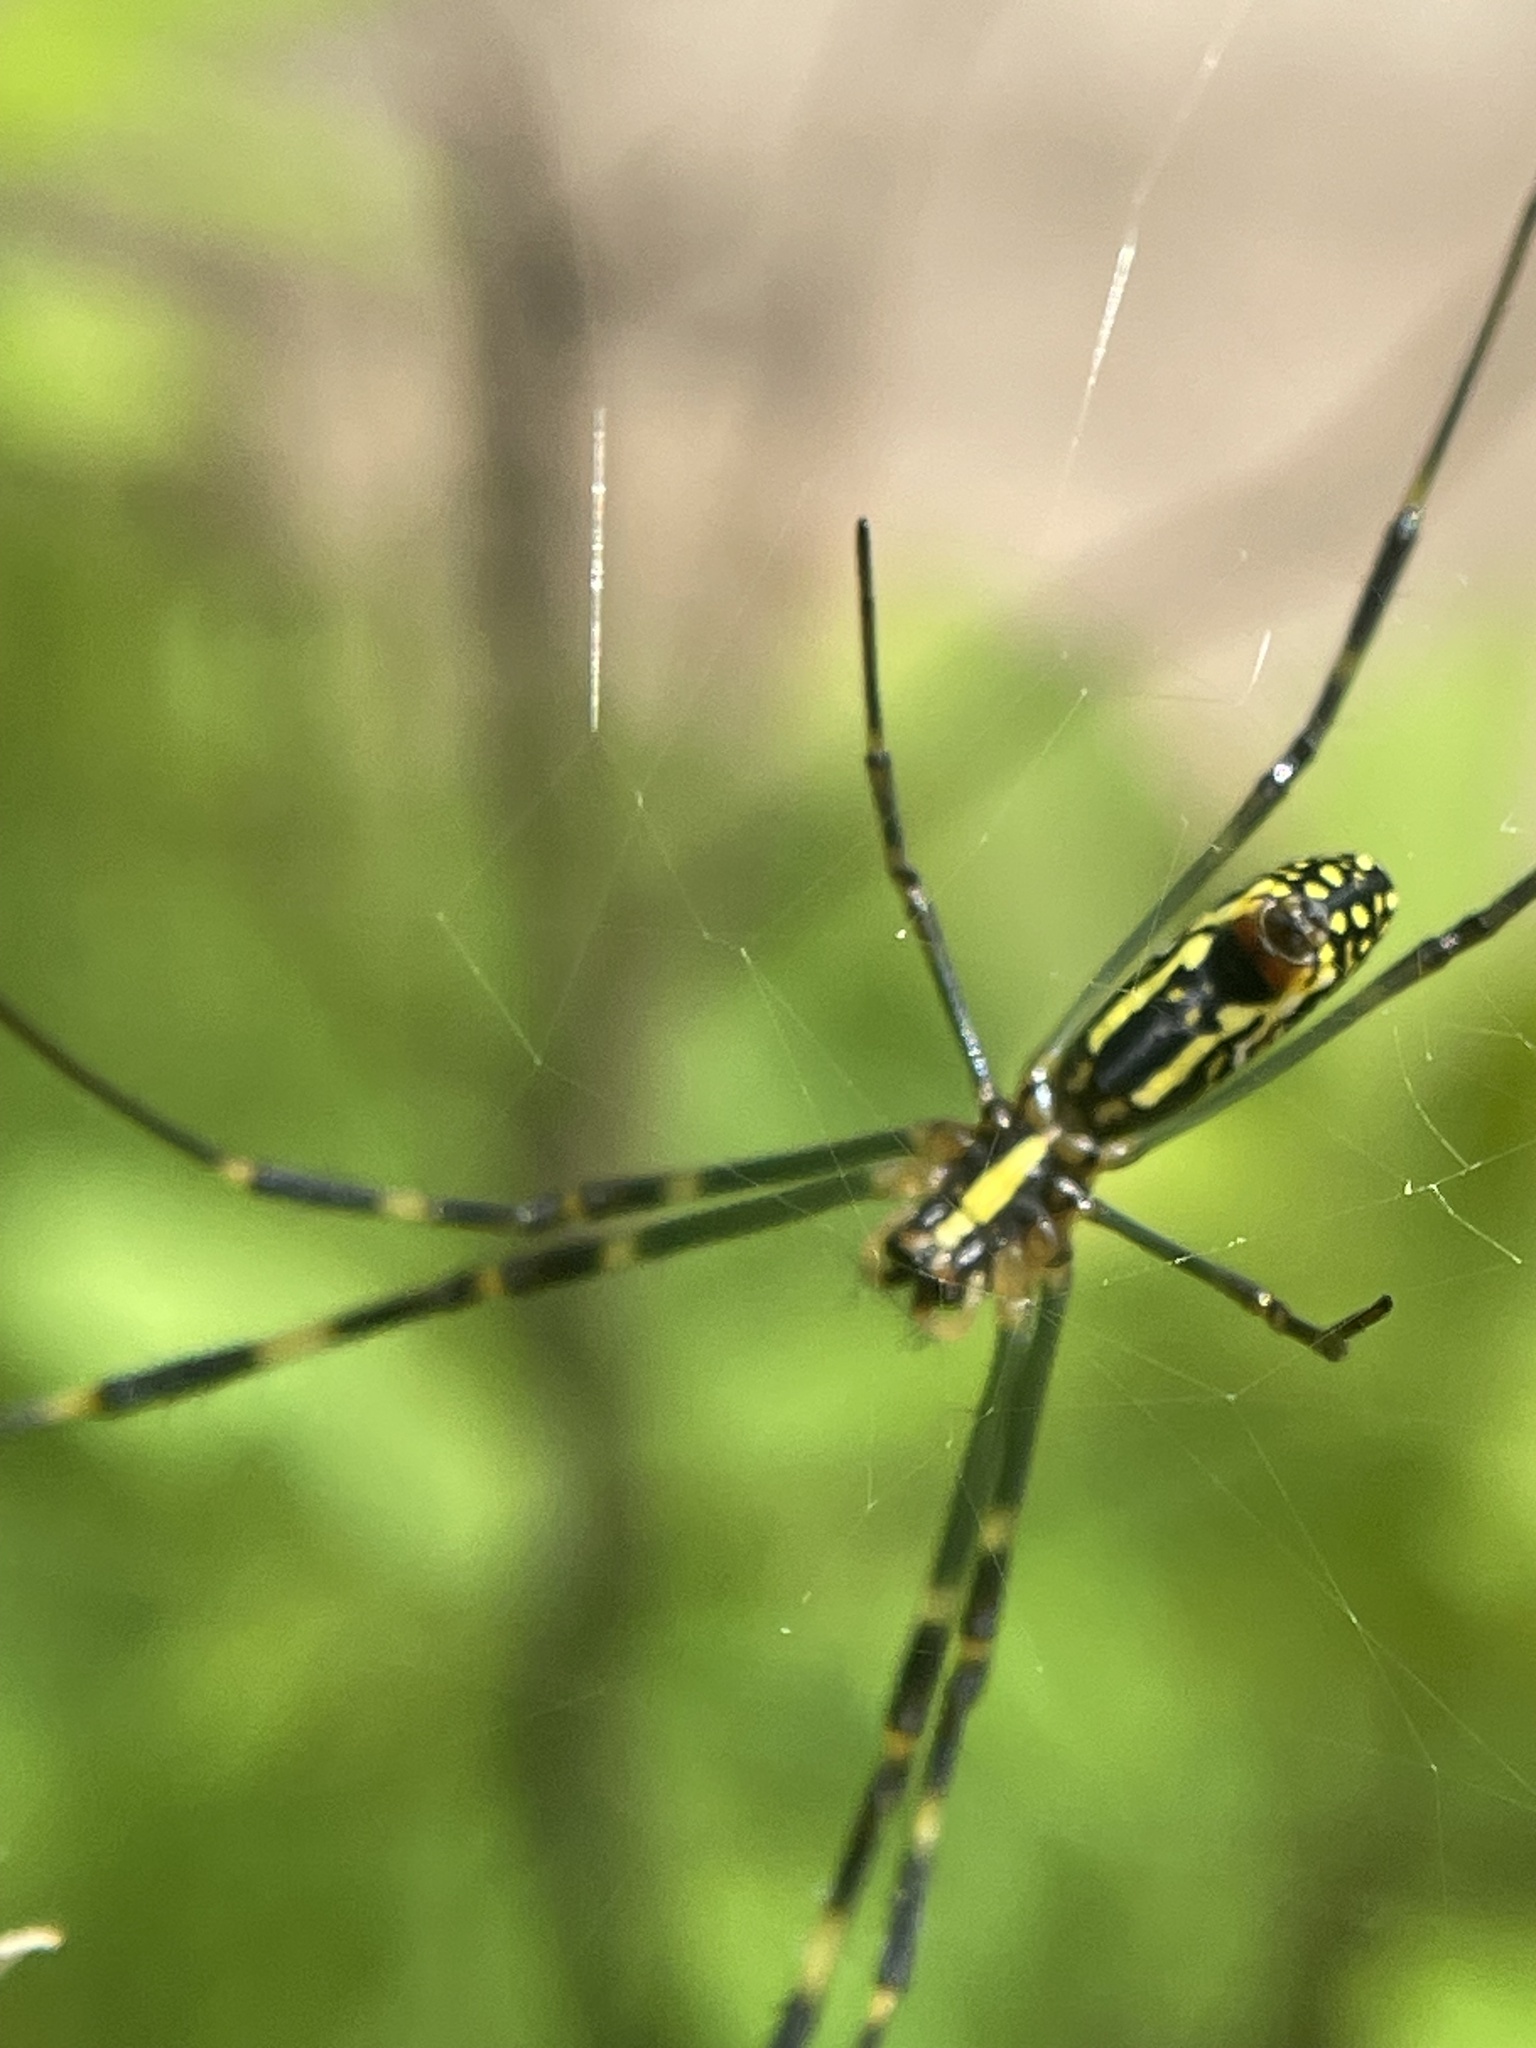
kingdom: Animalia
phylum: Arthropoda
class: Arachnida
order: Araneae
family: Araneidae
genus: Trichonephila
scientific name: Trichonephila clavata
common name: Jorō spider
